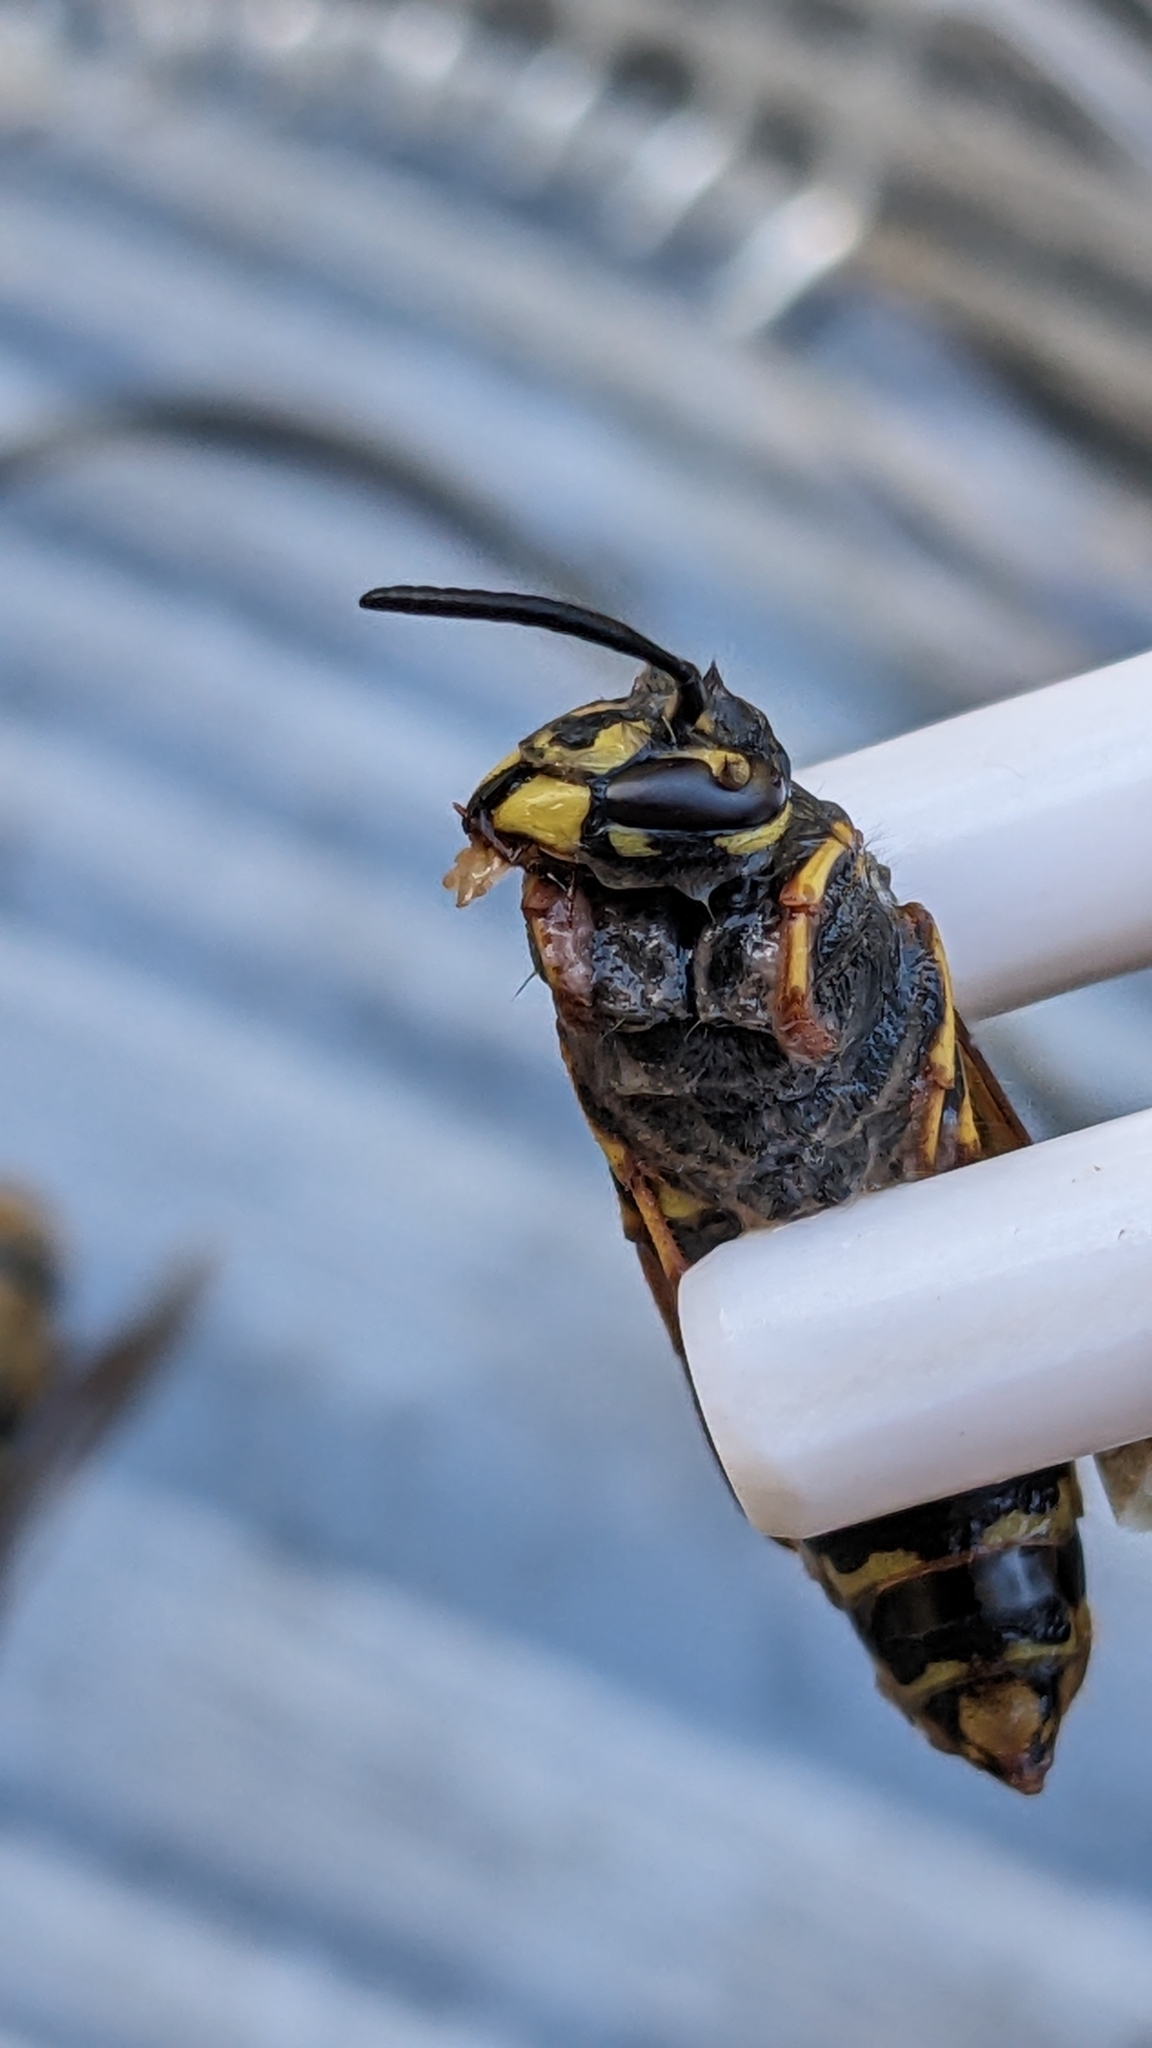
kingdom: Animalia
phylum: Arthropoda
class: Insecta
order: Hymenoptera
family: Vespidae
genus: Vespula
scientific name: Vespula vulgaris
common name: Common wasp
